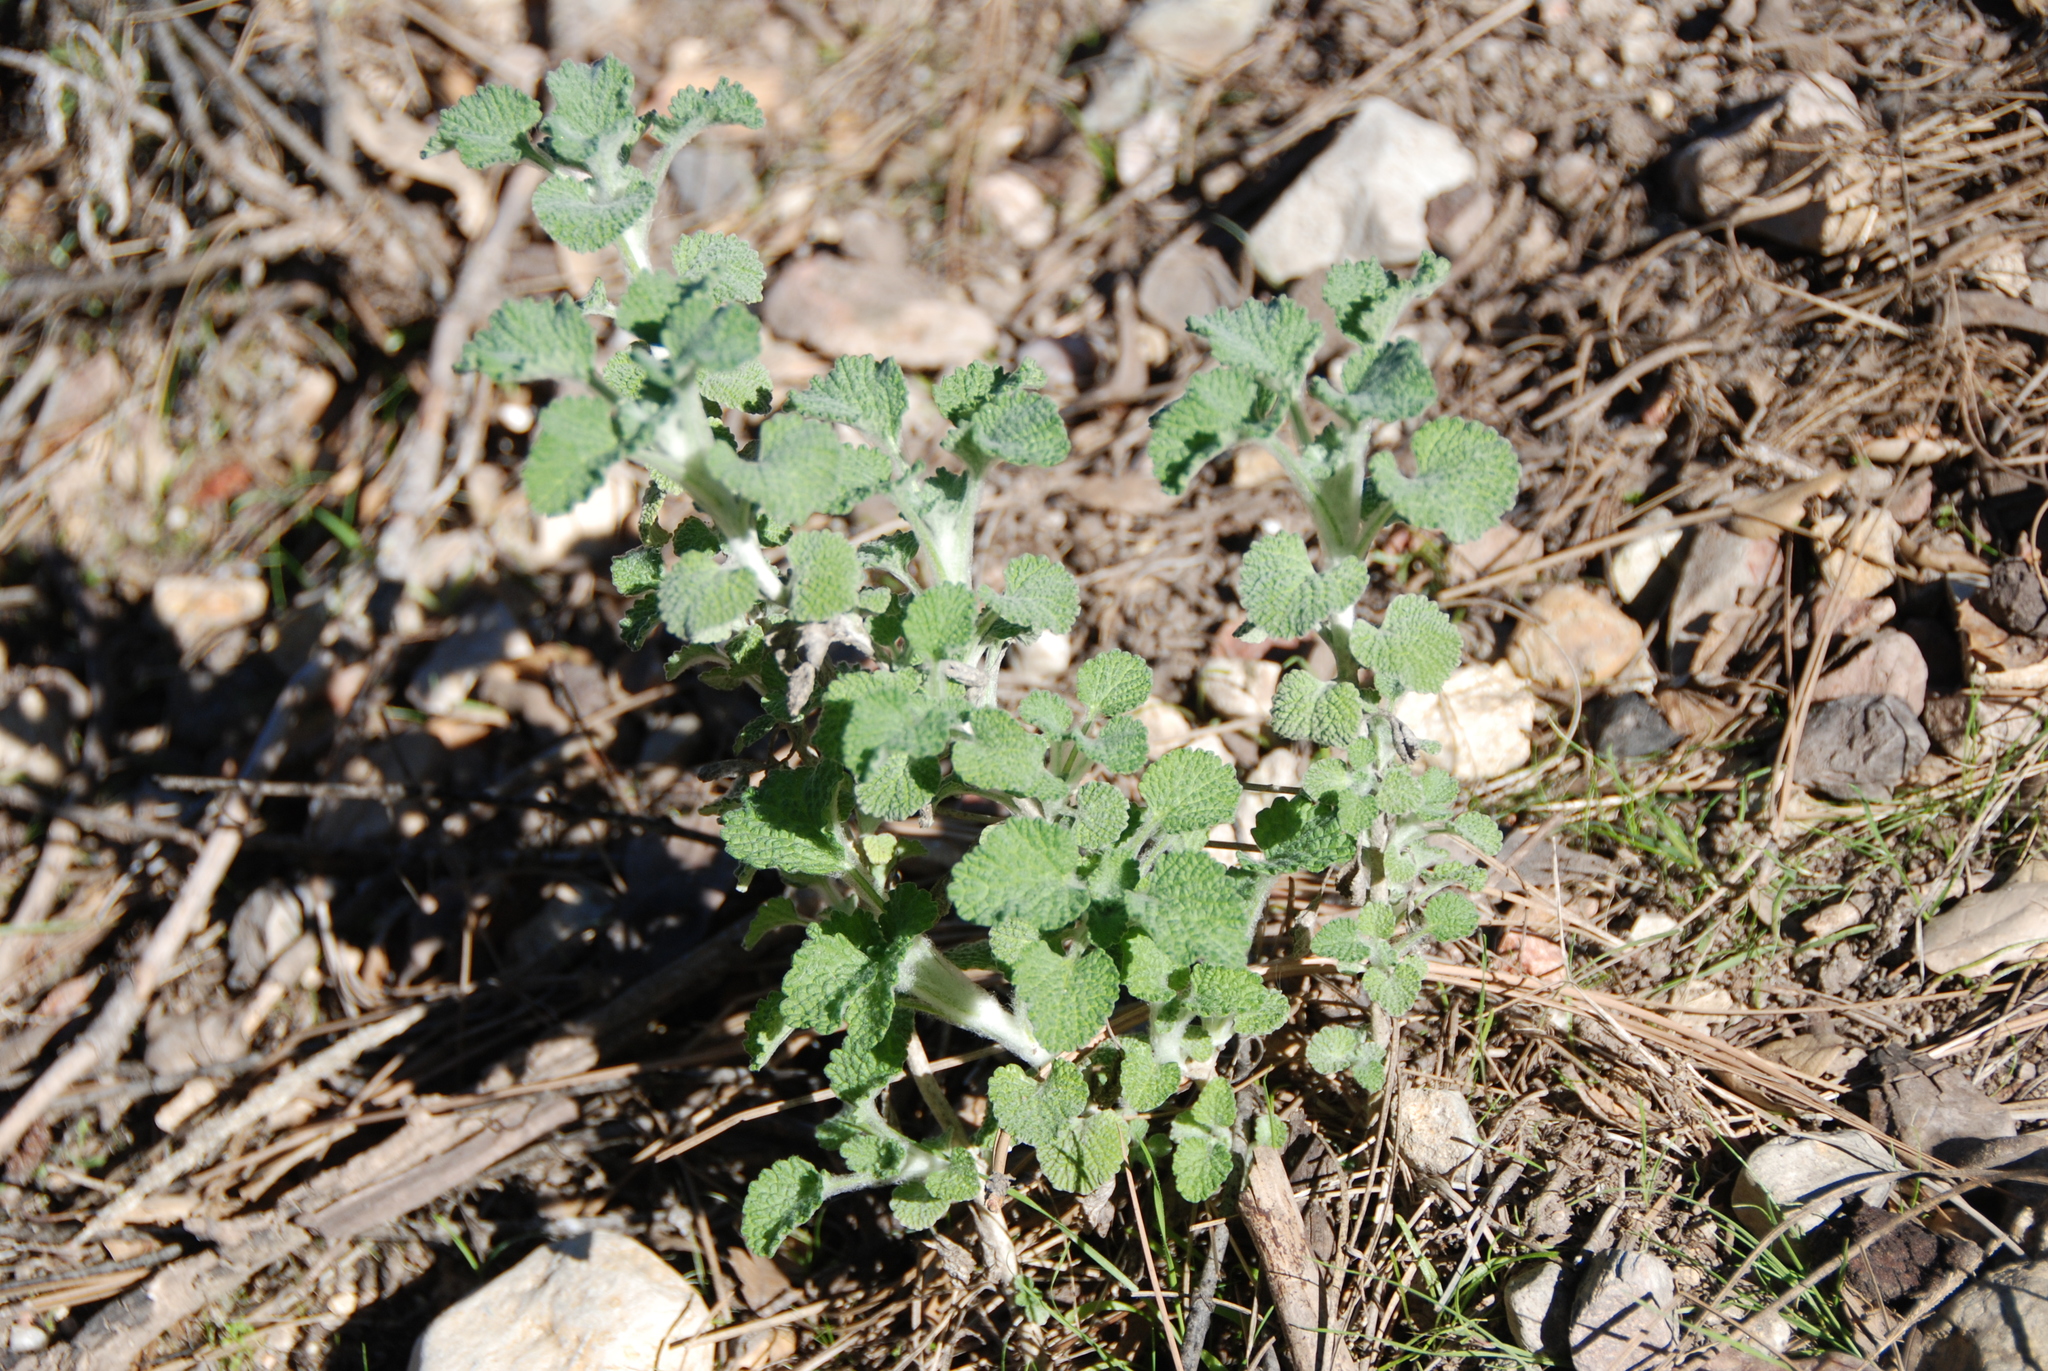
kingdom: Plantae
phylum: Tracheophyta
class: Magnoliopsida
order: Lamiales
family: Lamiaceae
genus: Marrubium
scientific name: Marrubium vulgare
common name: Horehound
